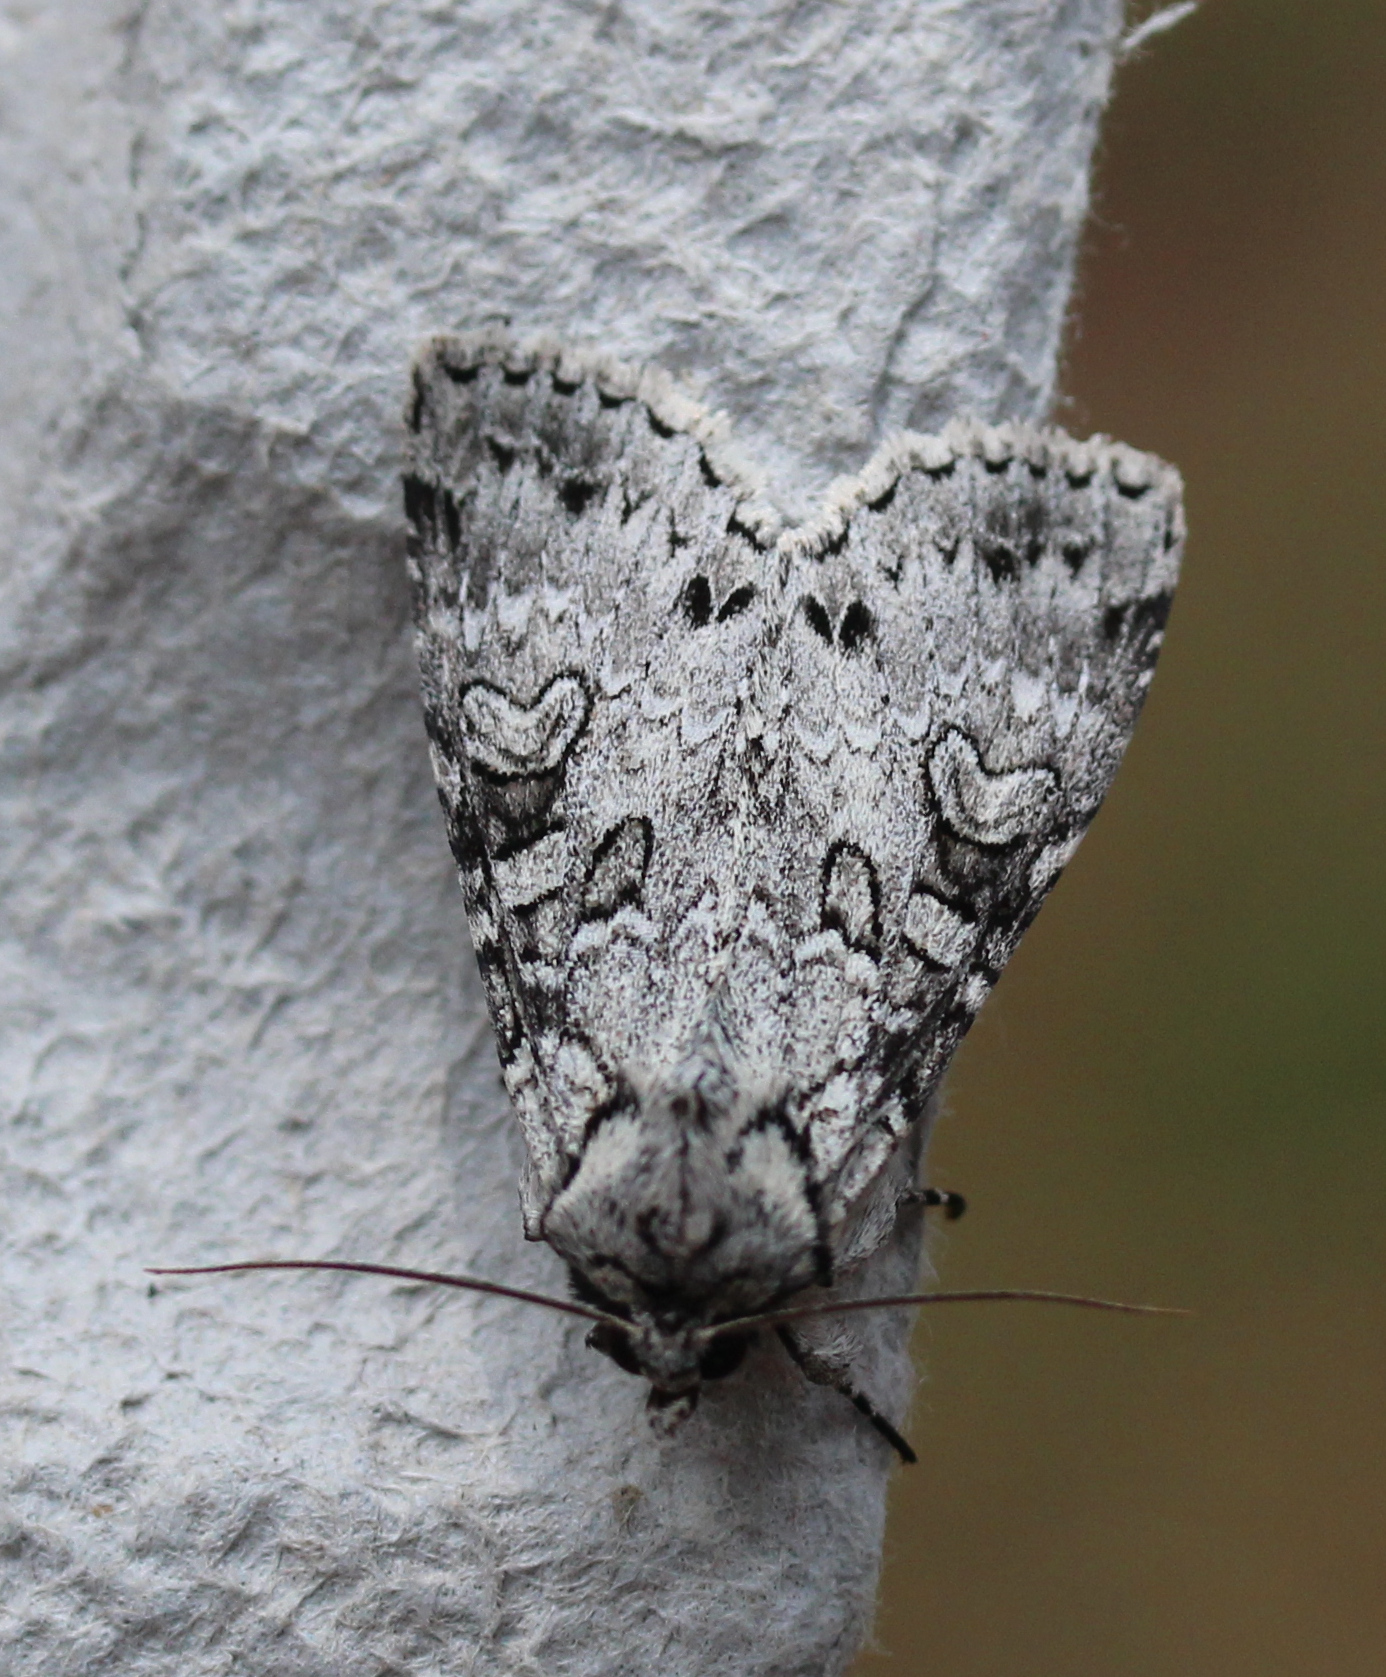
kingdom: Animalia
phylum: Arthropoda
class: Insecta
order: Lepidoptera
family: Noctuidae
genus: Polia
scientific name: Polia nimbosa
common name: Stormy arches
